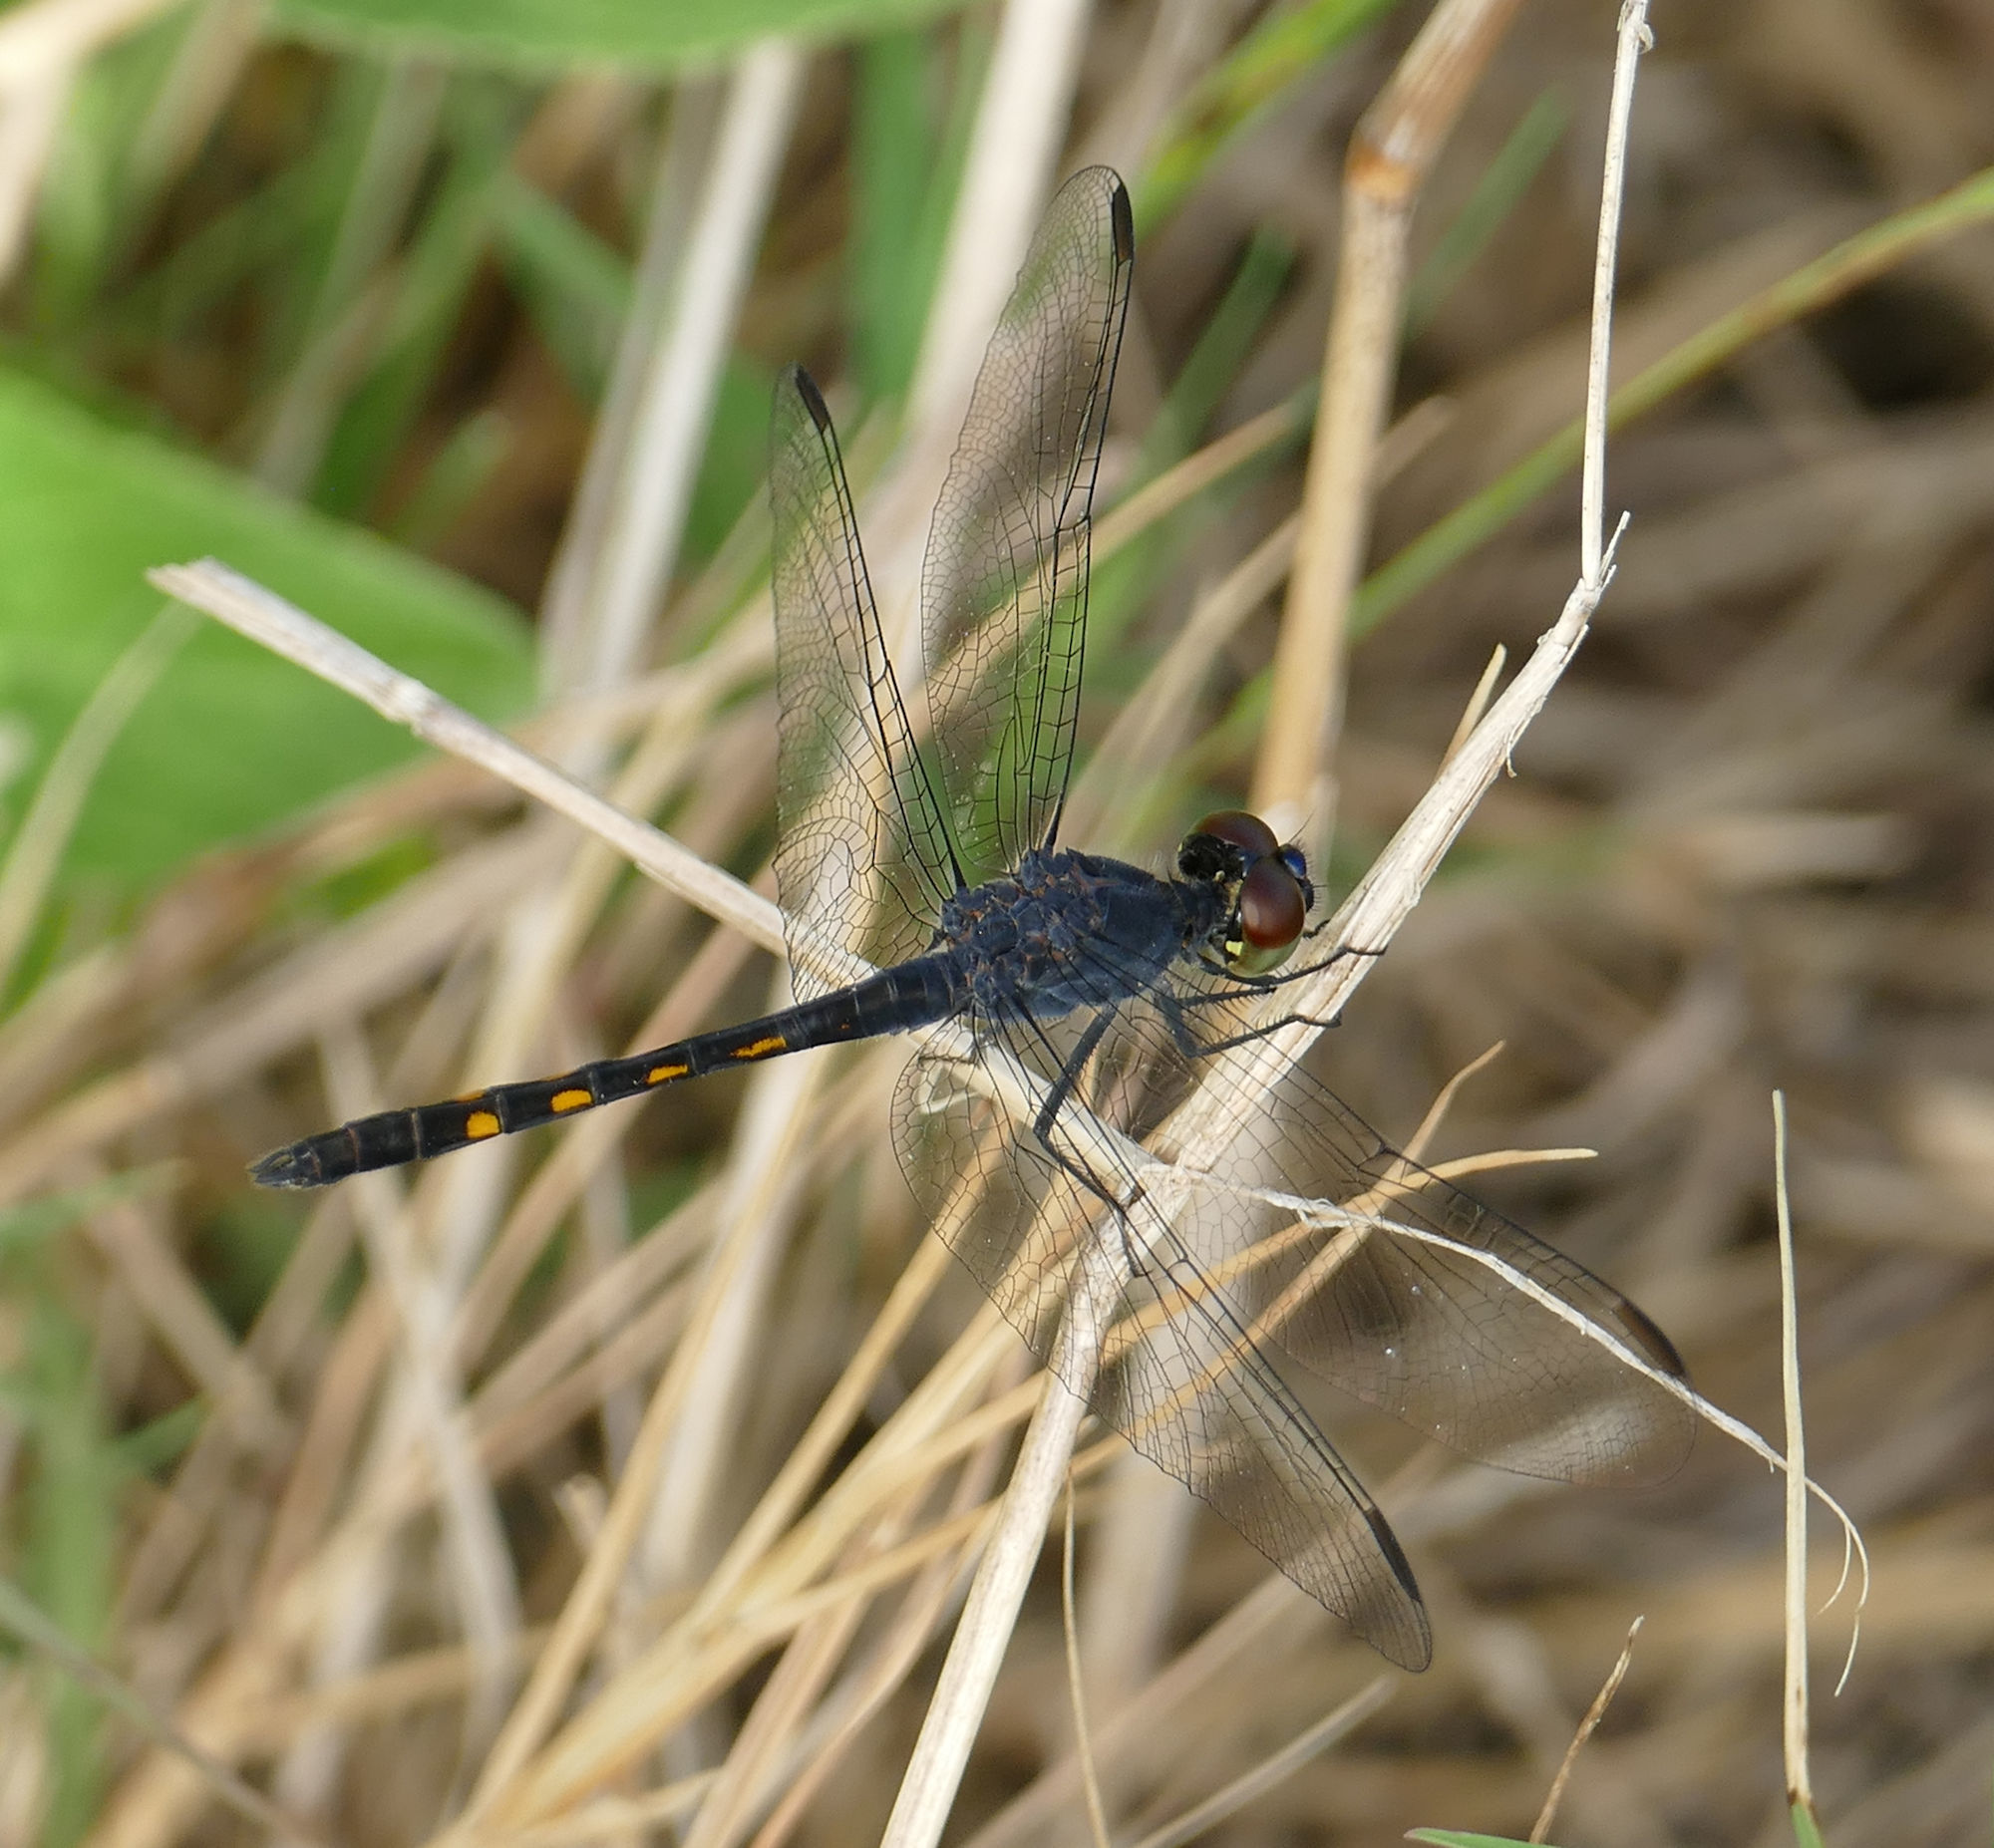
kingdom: Animalia
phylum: Arthropoda
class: Insecta
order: Odonata
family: Libellulidae
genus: Erythrodiplax
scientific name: Erythrodiplax berenice
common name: Seaside dragonlet
